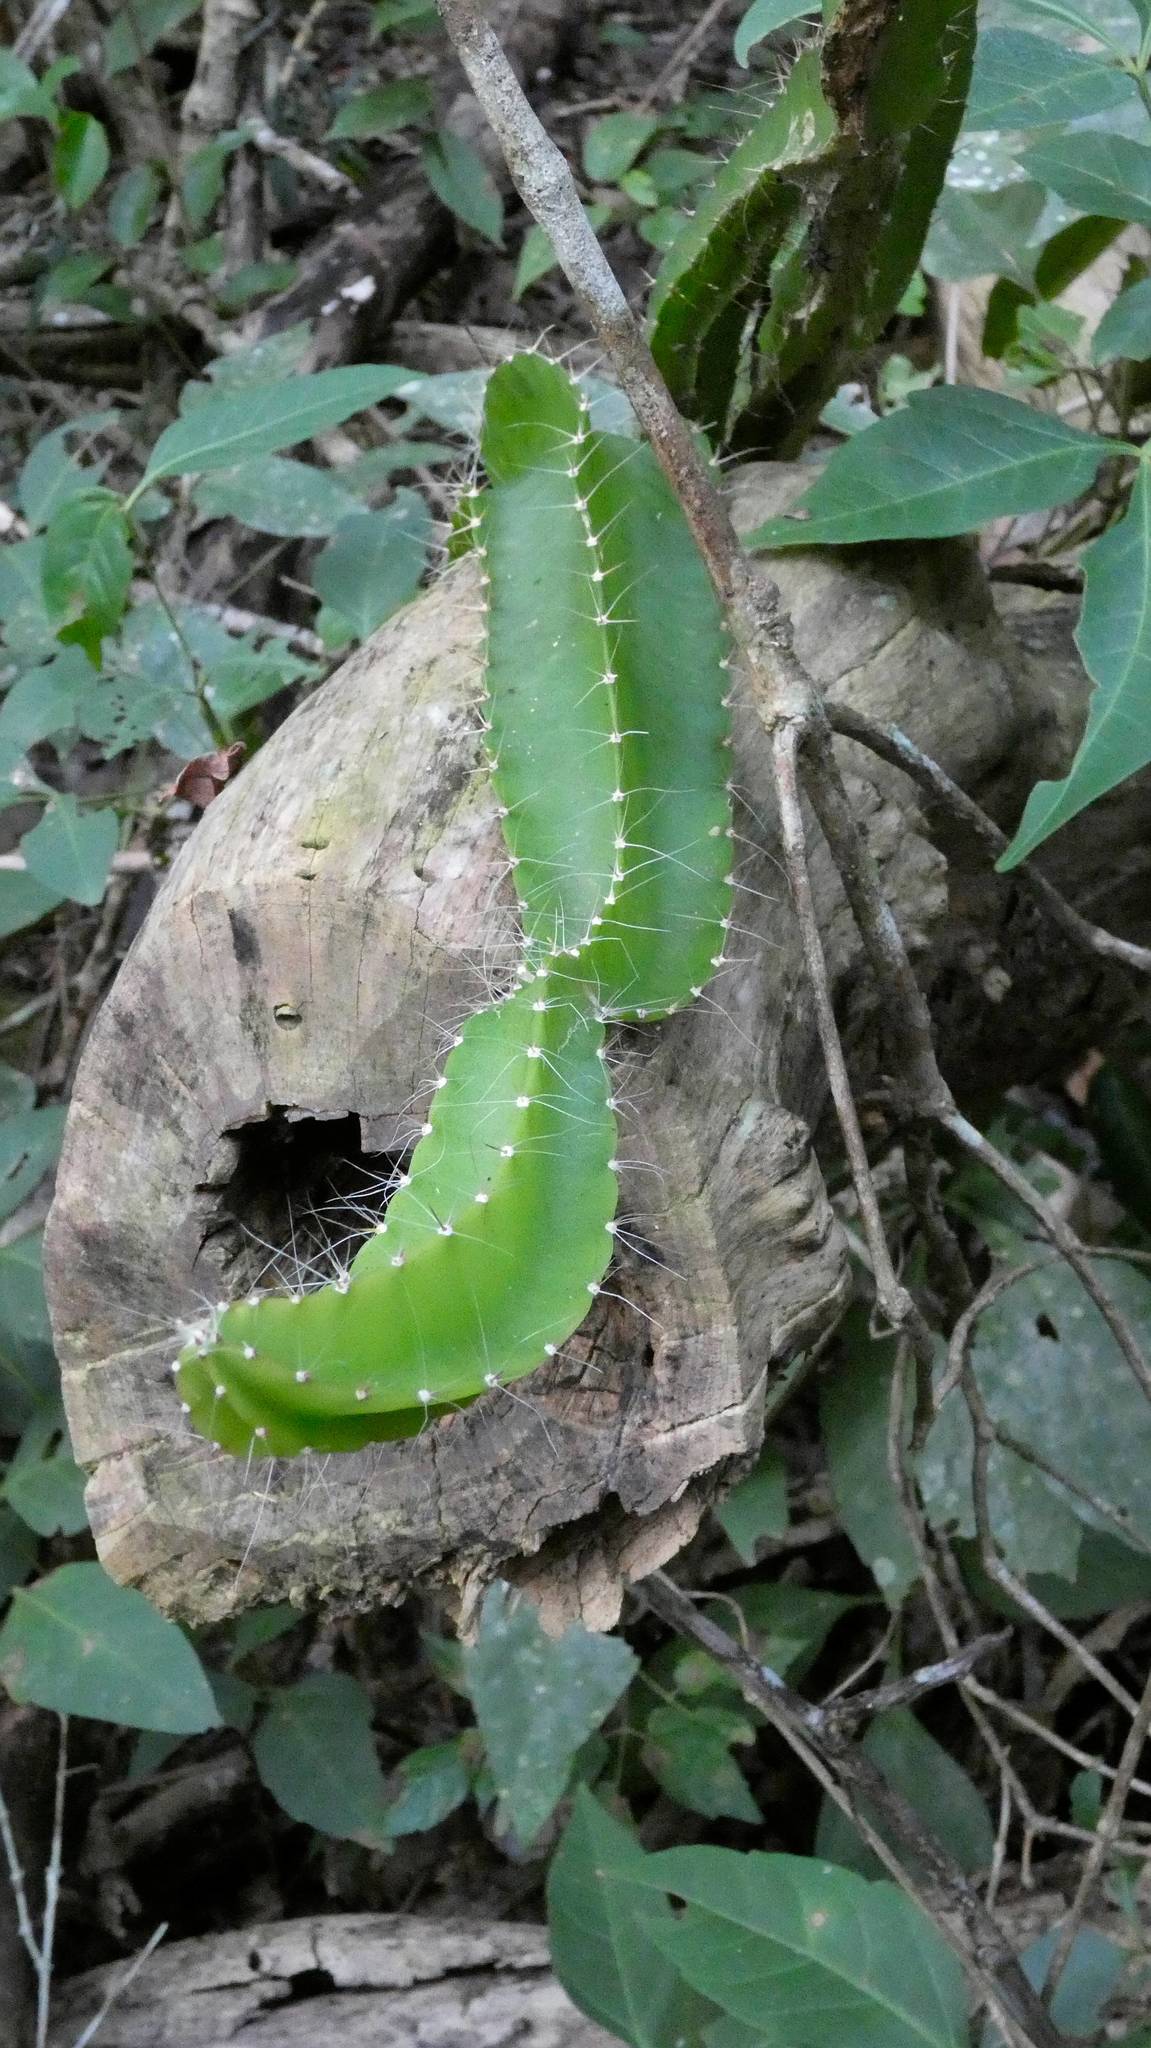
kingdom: Plantae
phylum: Tracheophyta
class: Magnoliopsida
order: Caryophyllales
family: Cactaceae
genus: Deamia
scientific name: Deamia testudo
